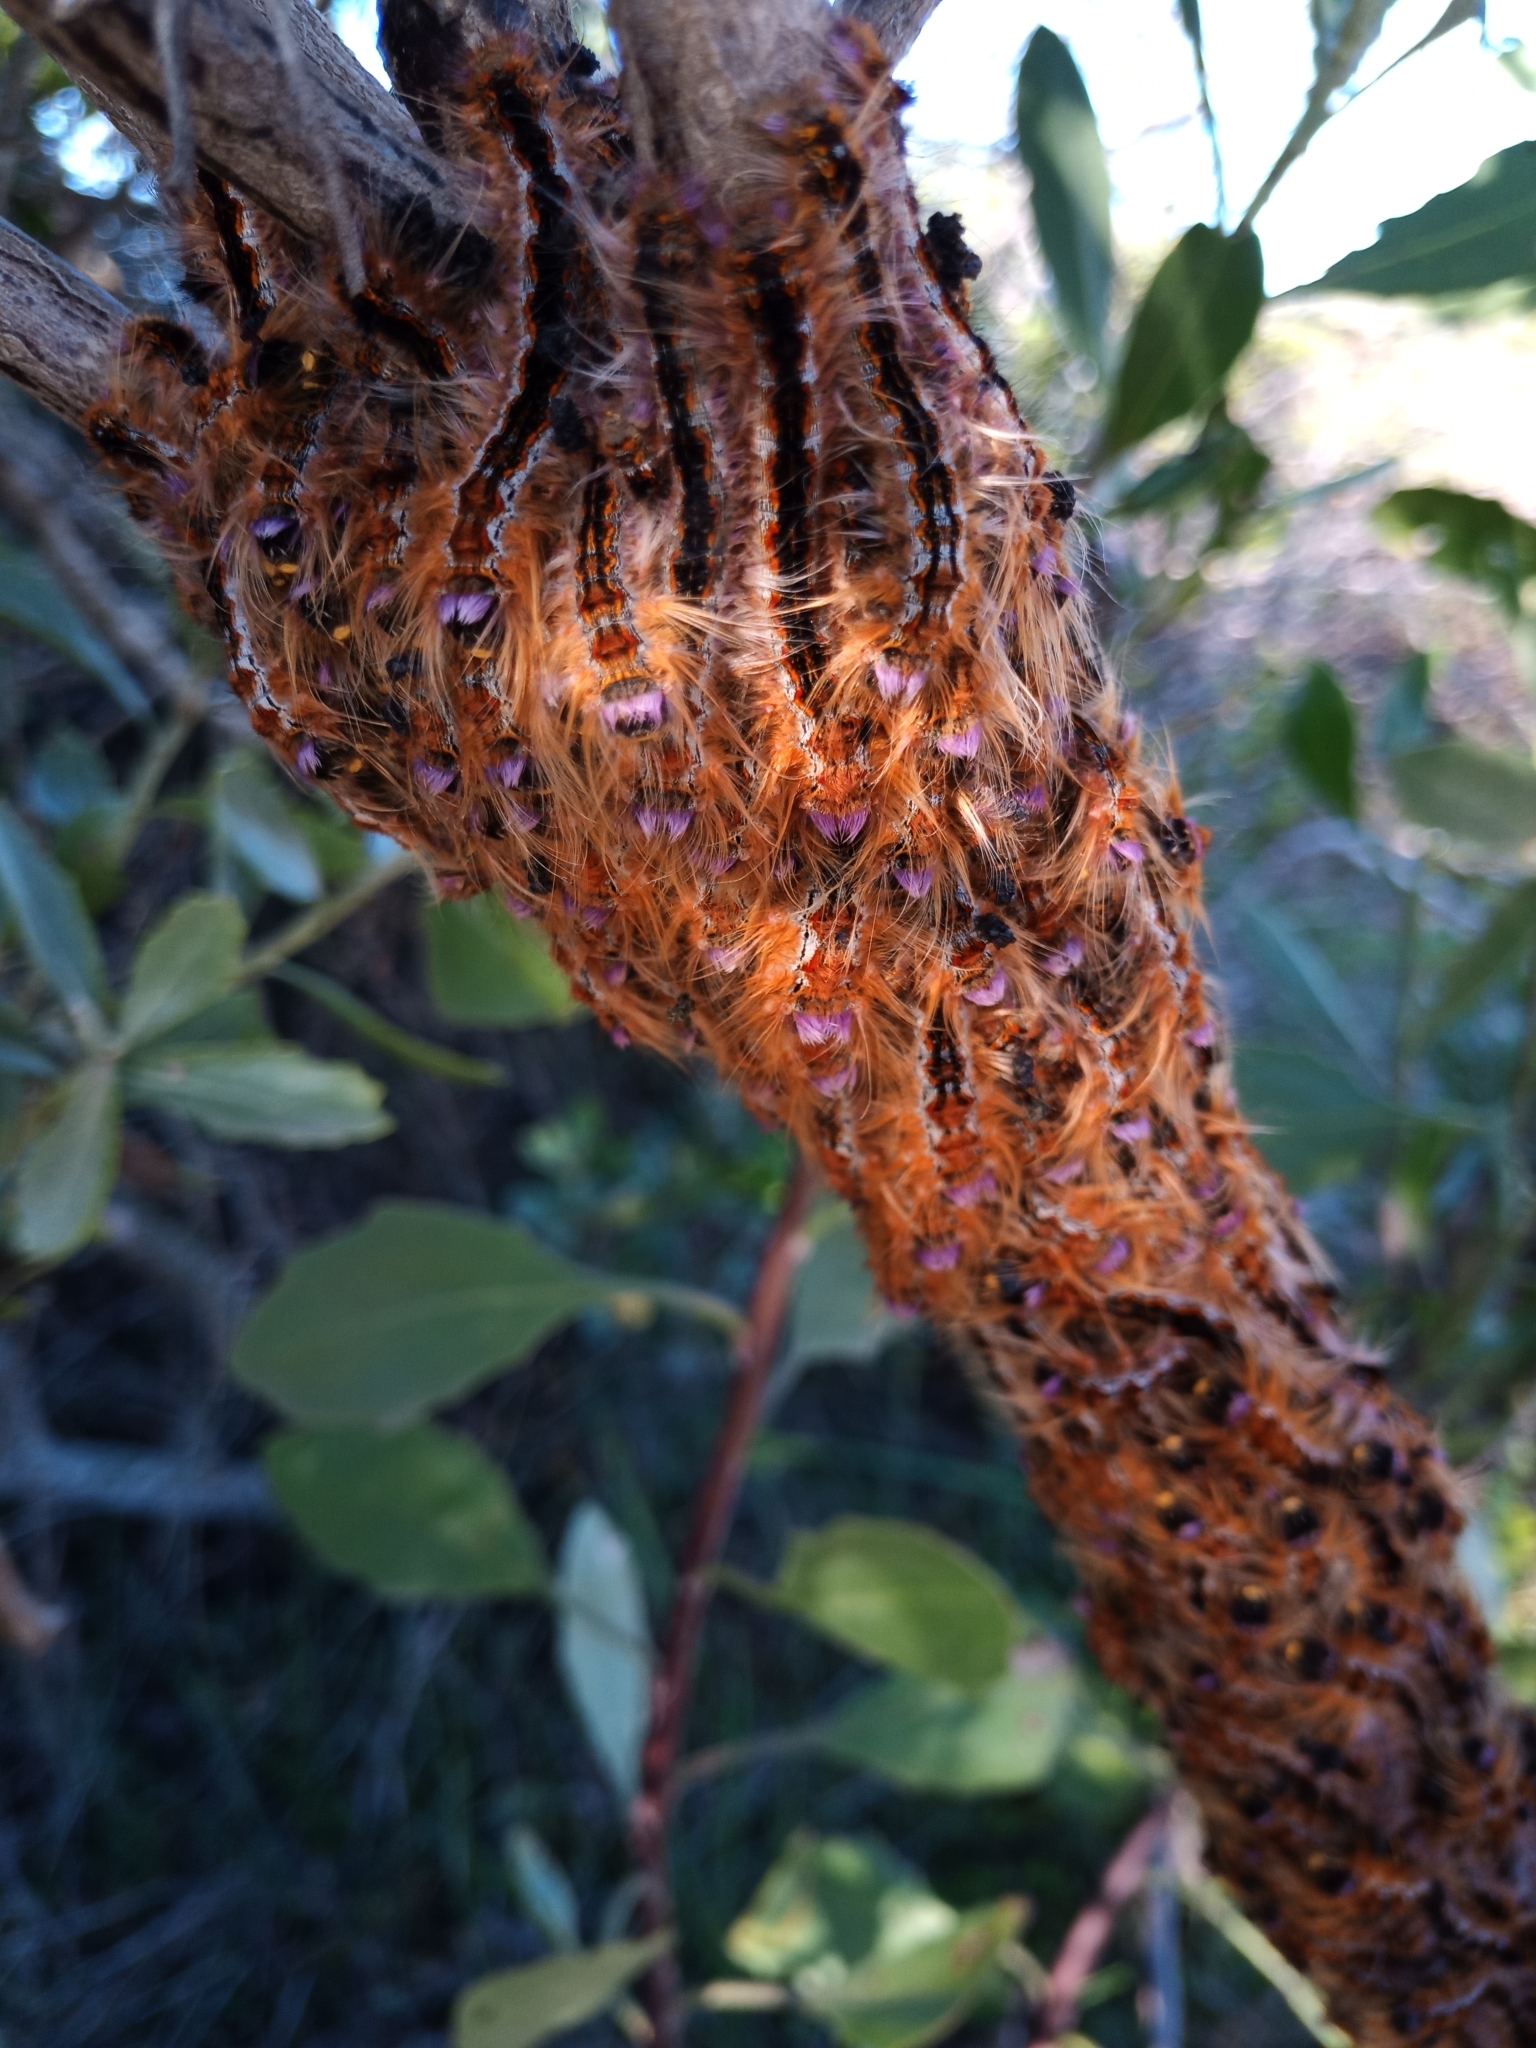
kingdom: Animalia
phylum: Arthropoda
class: Insecta
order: Lepidoptera
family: Lasiocampidae
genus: Eutricha
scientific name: Eutricha capensis
